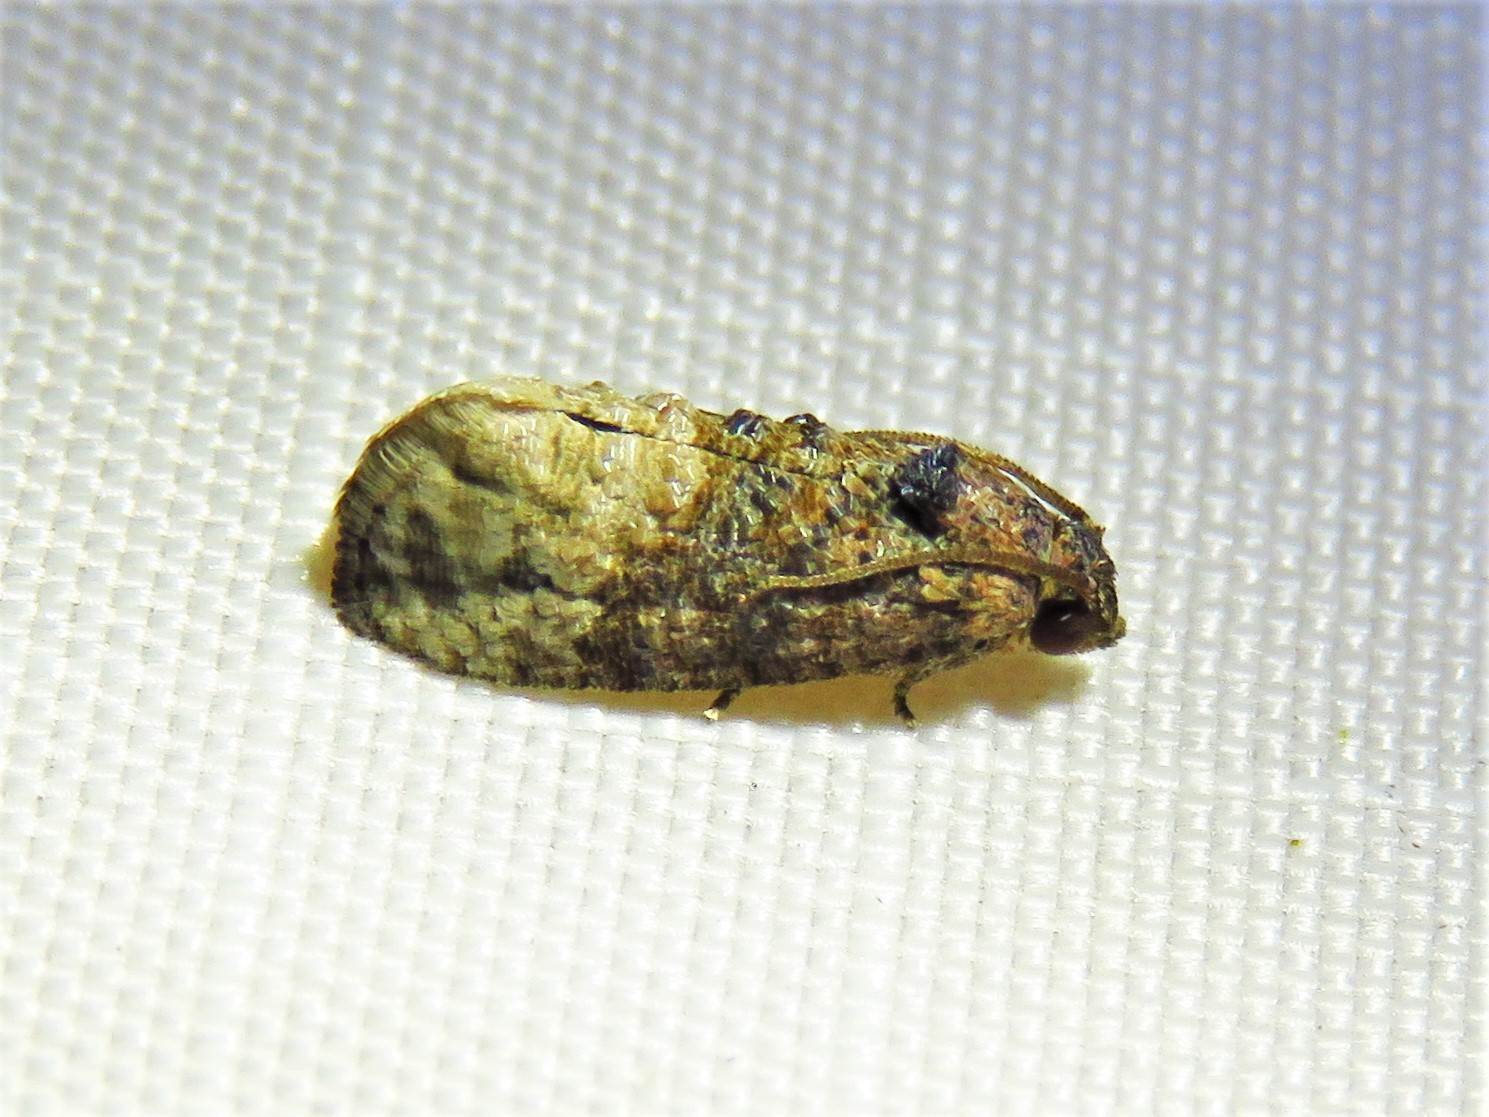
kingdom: Animalia
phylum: Arthropoda
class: Insecta
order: Lepidoptera
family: Tortricidae
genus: Ecdytolopha
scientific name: Ecdytolopha mana
